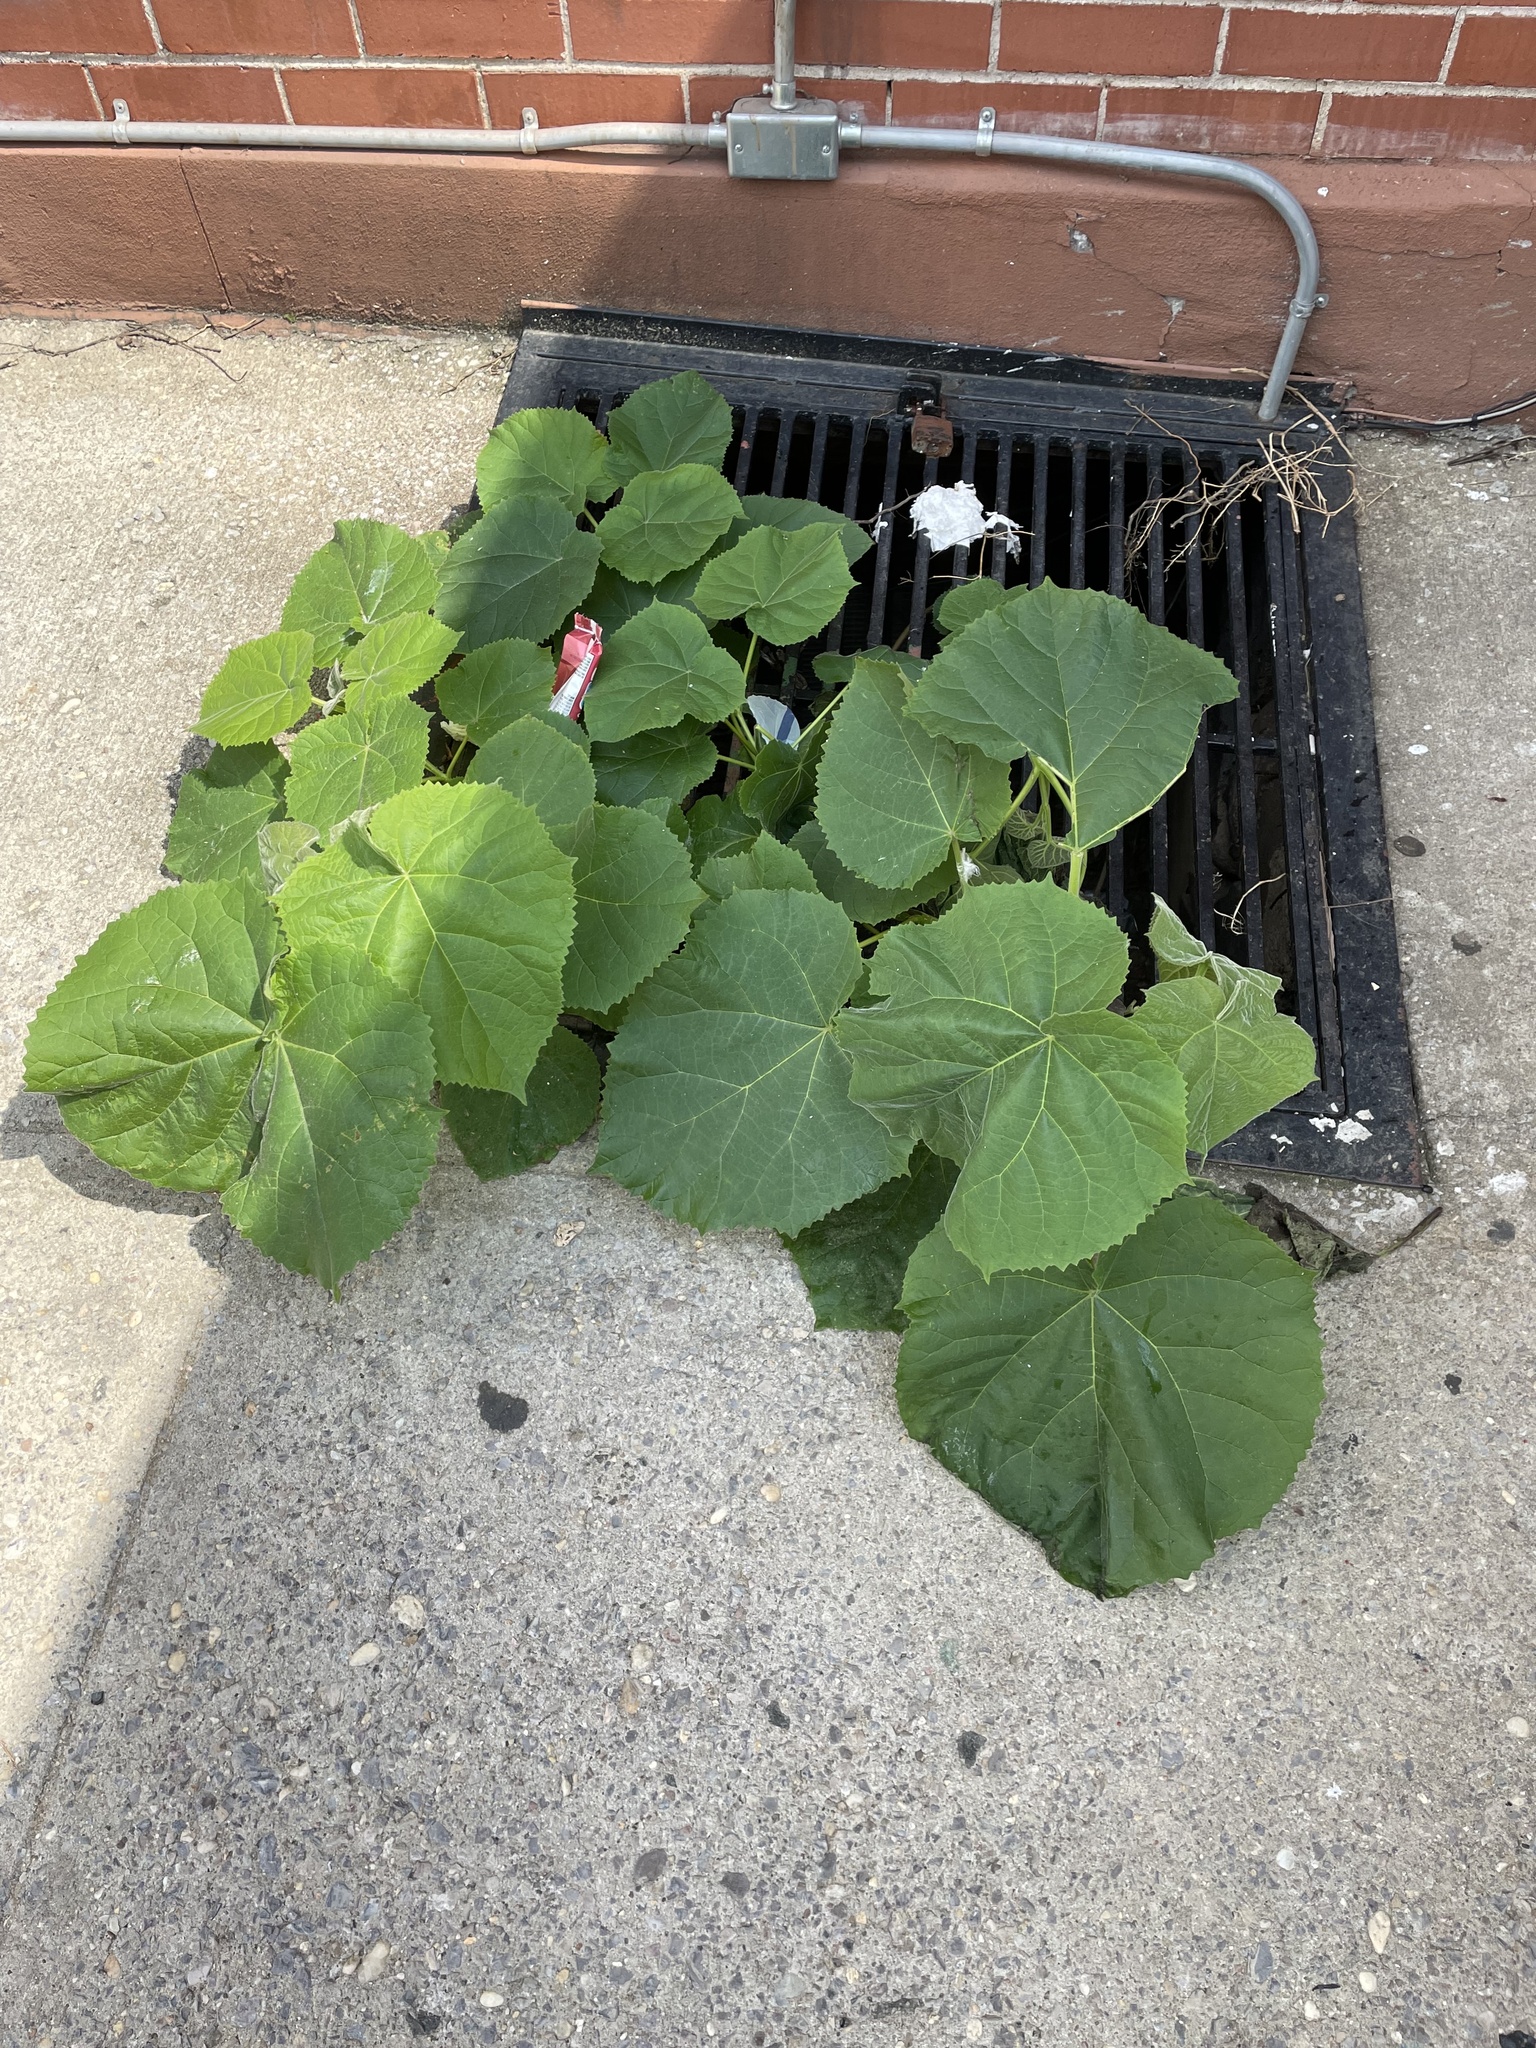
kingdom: Plantae
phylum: Tracheophyta
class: Magnoliopsida
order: Lamiales
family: Paulowniaceae
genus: Paulownia
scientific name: Paulownia tomentosa
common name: Foxglove-tree
